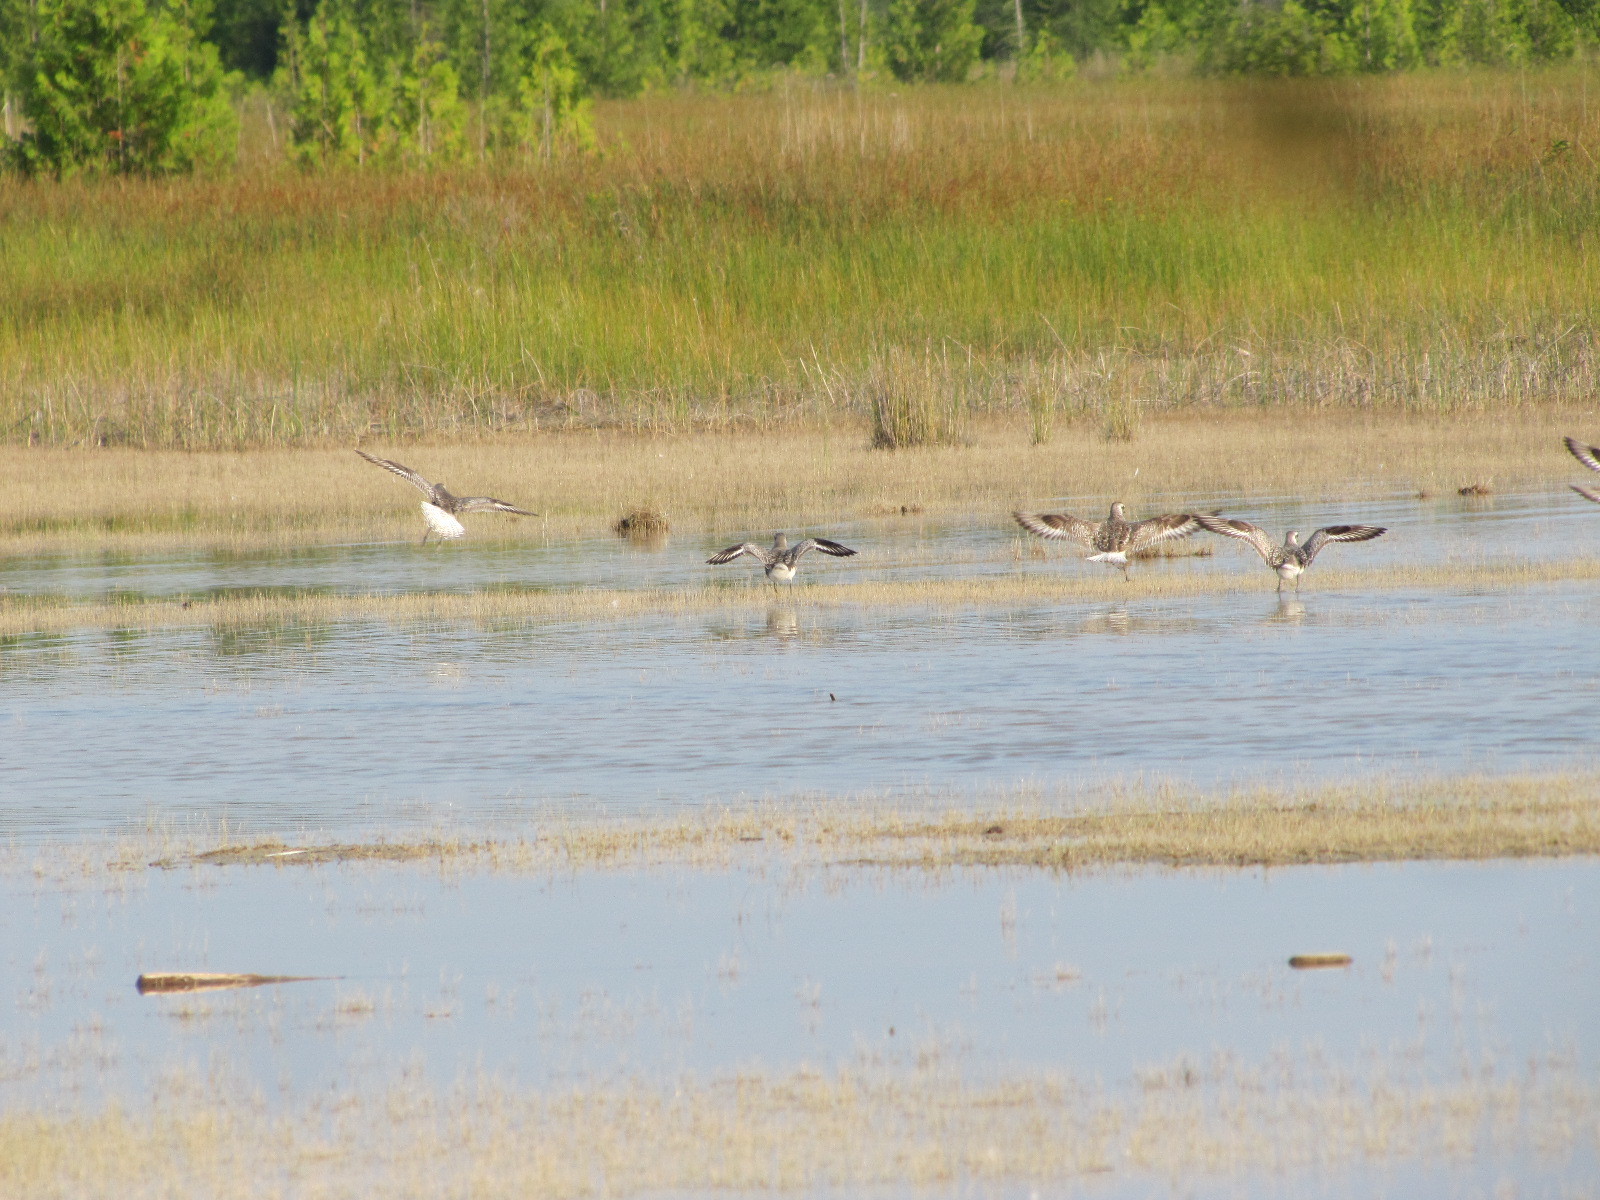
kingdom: Animalia
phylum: Chordata
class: Aves
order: Charadriiformes
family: Charadriidae
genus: Pluvialis
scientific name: Pluvialis squatarola
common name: Grey plover
